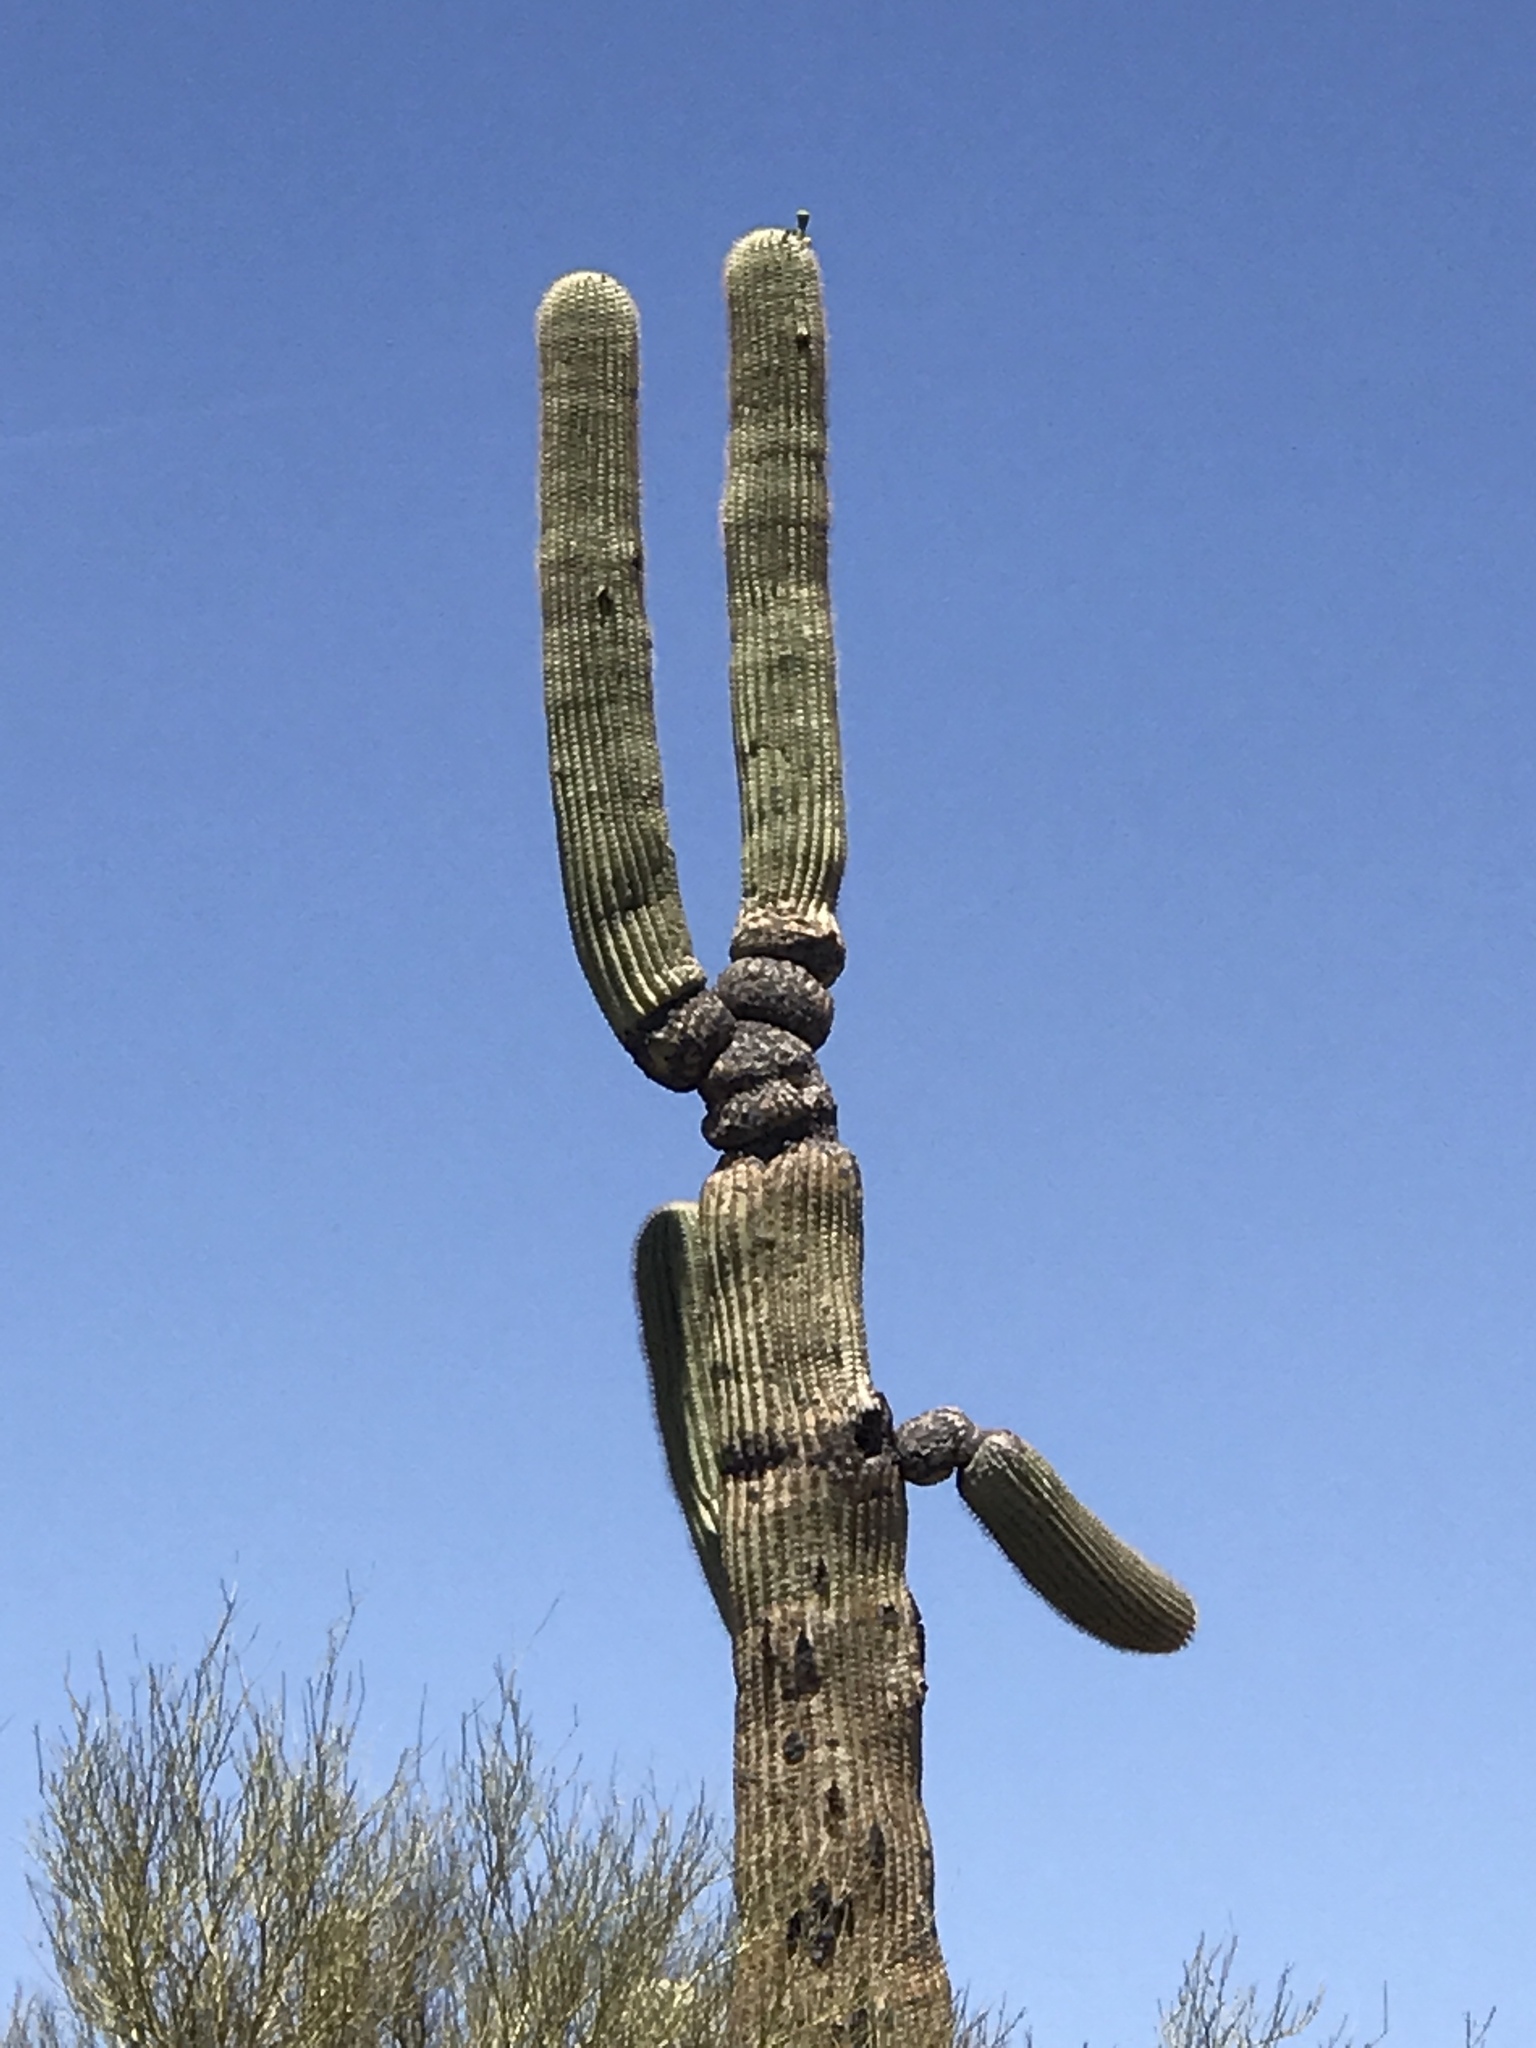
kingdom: Plantae
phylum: Tracheophyta
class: Magnoliopsida
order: Caryophyllales
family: Cactaceae
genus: Carnegiea
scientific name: Carnegiea gigantea
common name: Saguaro
